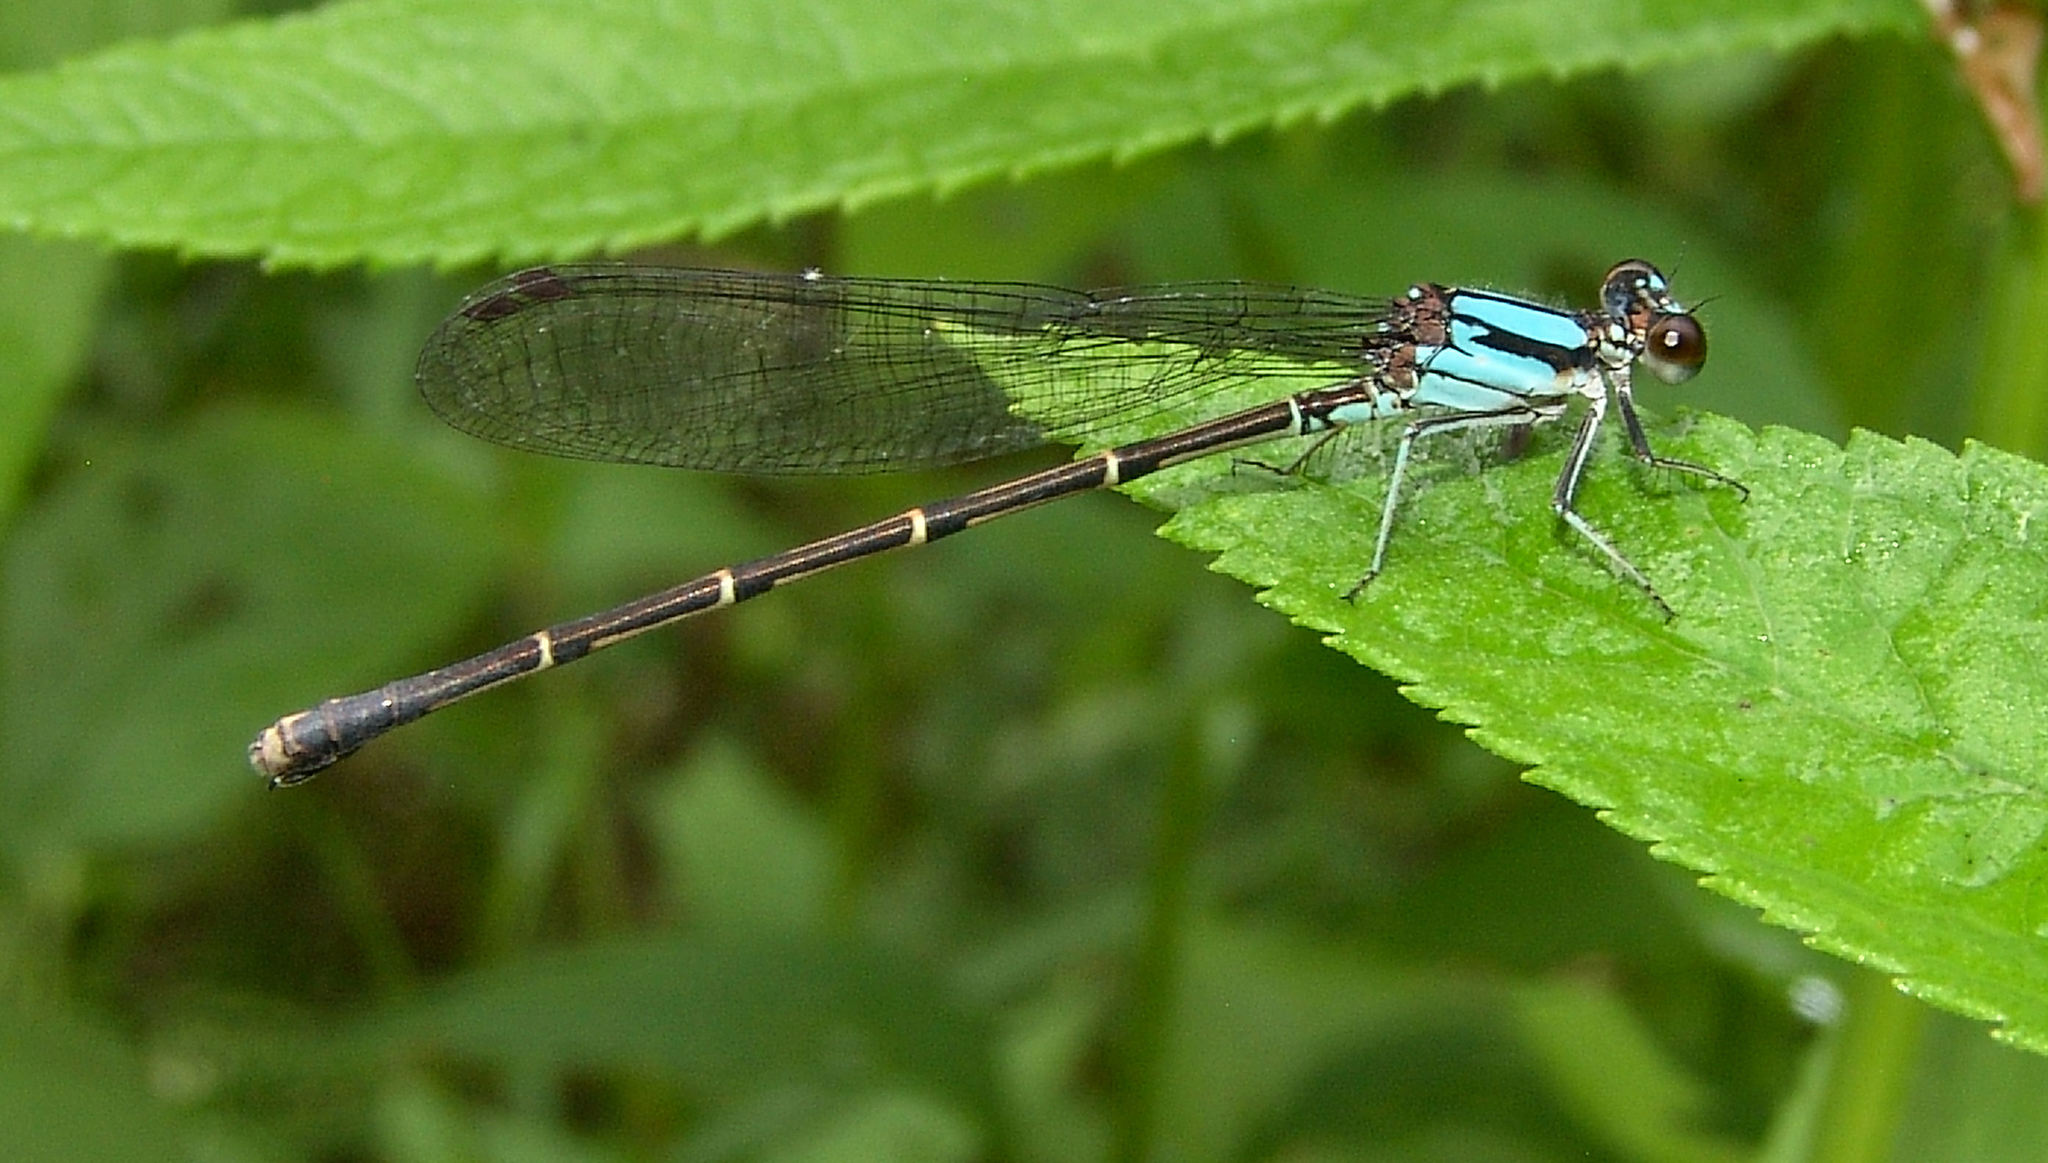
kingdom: Animalia
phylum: Arthropoda
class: Insecta
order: Odonata
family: Coenagrionidae
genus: Argia
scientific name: Argia tibialis
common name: Blue-tipped dancer
